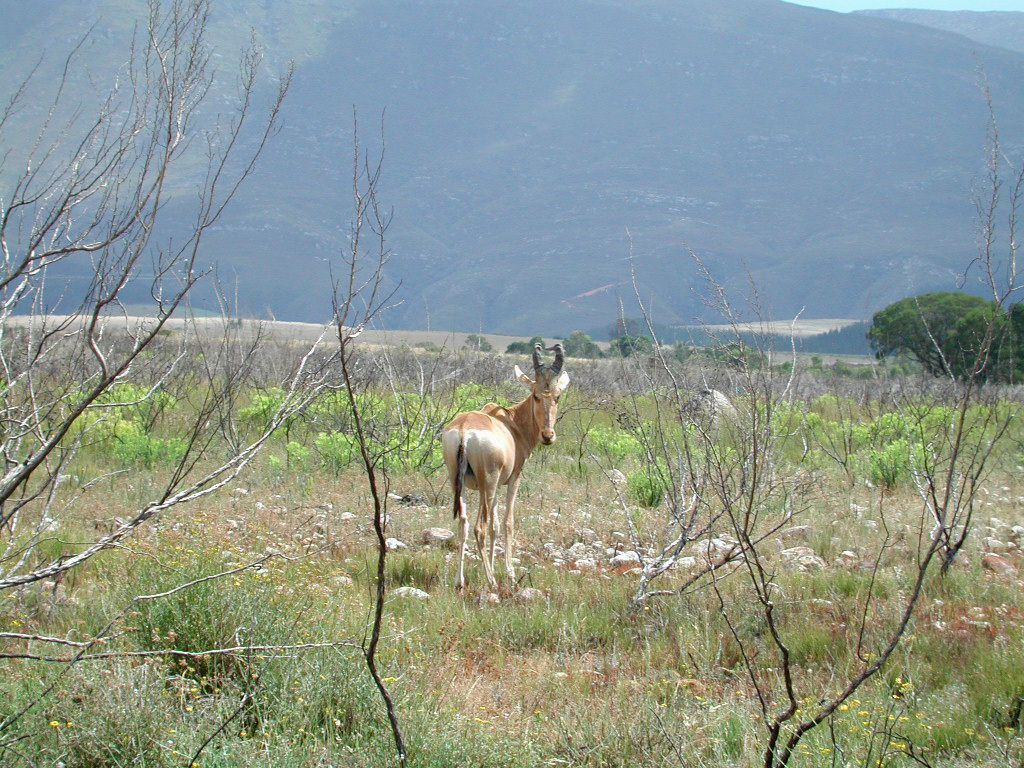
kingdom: Animalia
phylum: Chordata
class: Mammalia
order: Artiodactyla
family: Bovidae
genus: Alcelaphus
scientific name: Alcelaphus caama
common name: Red hartebeest
